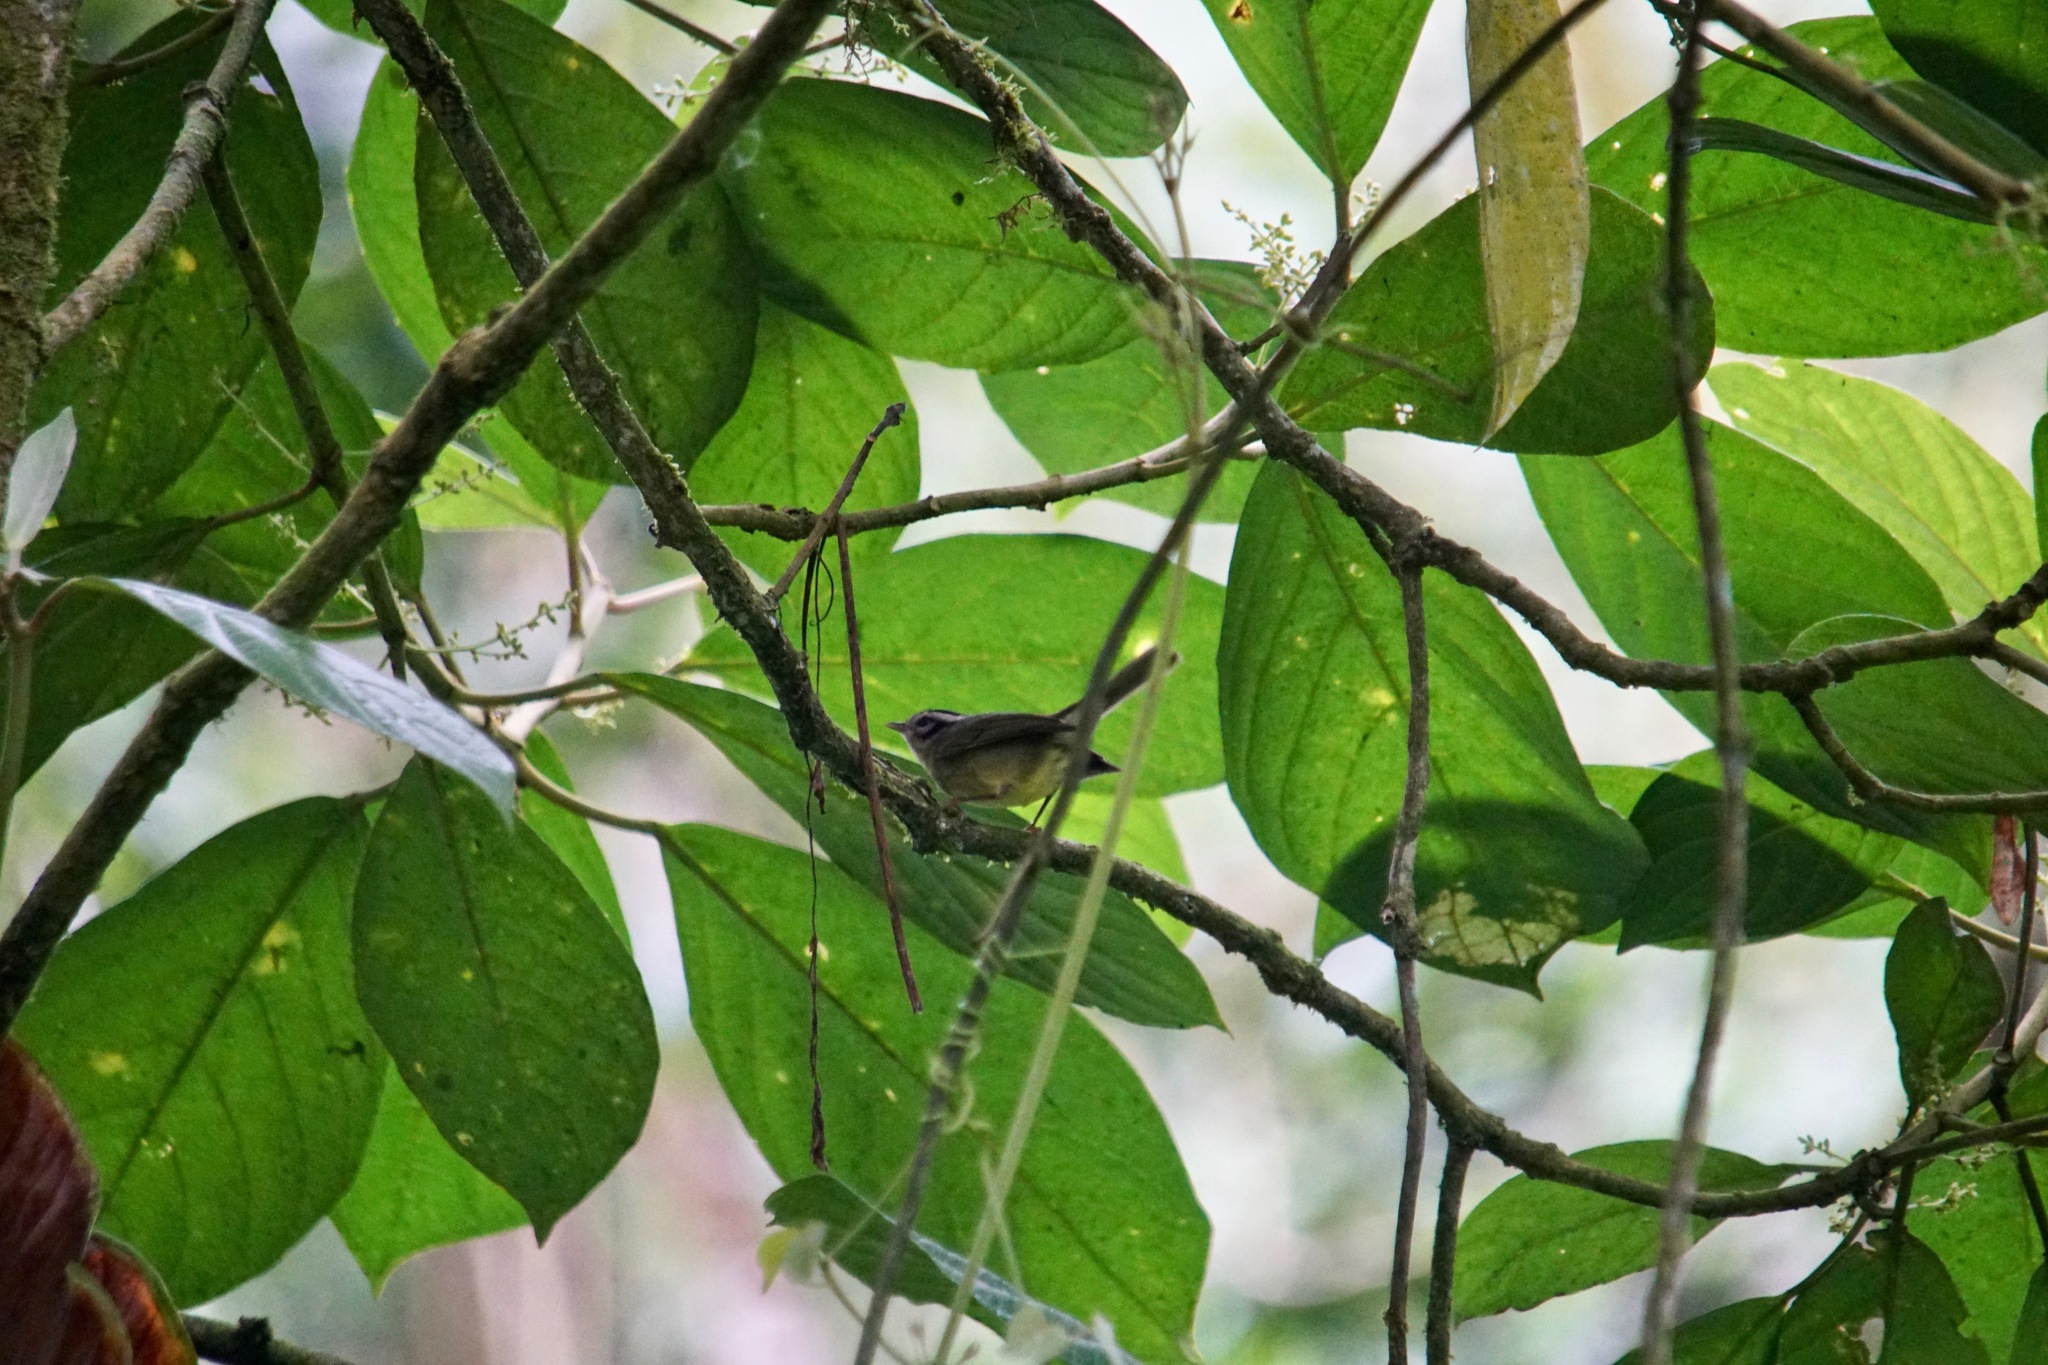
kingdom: Animalia
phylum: Chordata
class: Aves
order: Passeriformes
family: Parulidae
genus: Basileuterus
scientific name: Basileuterus melanotis
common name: Black-eared warbler
